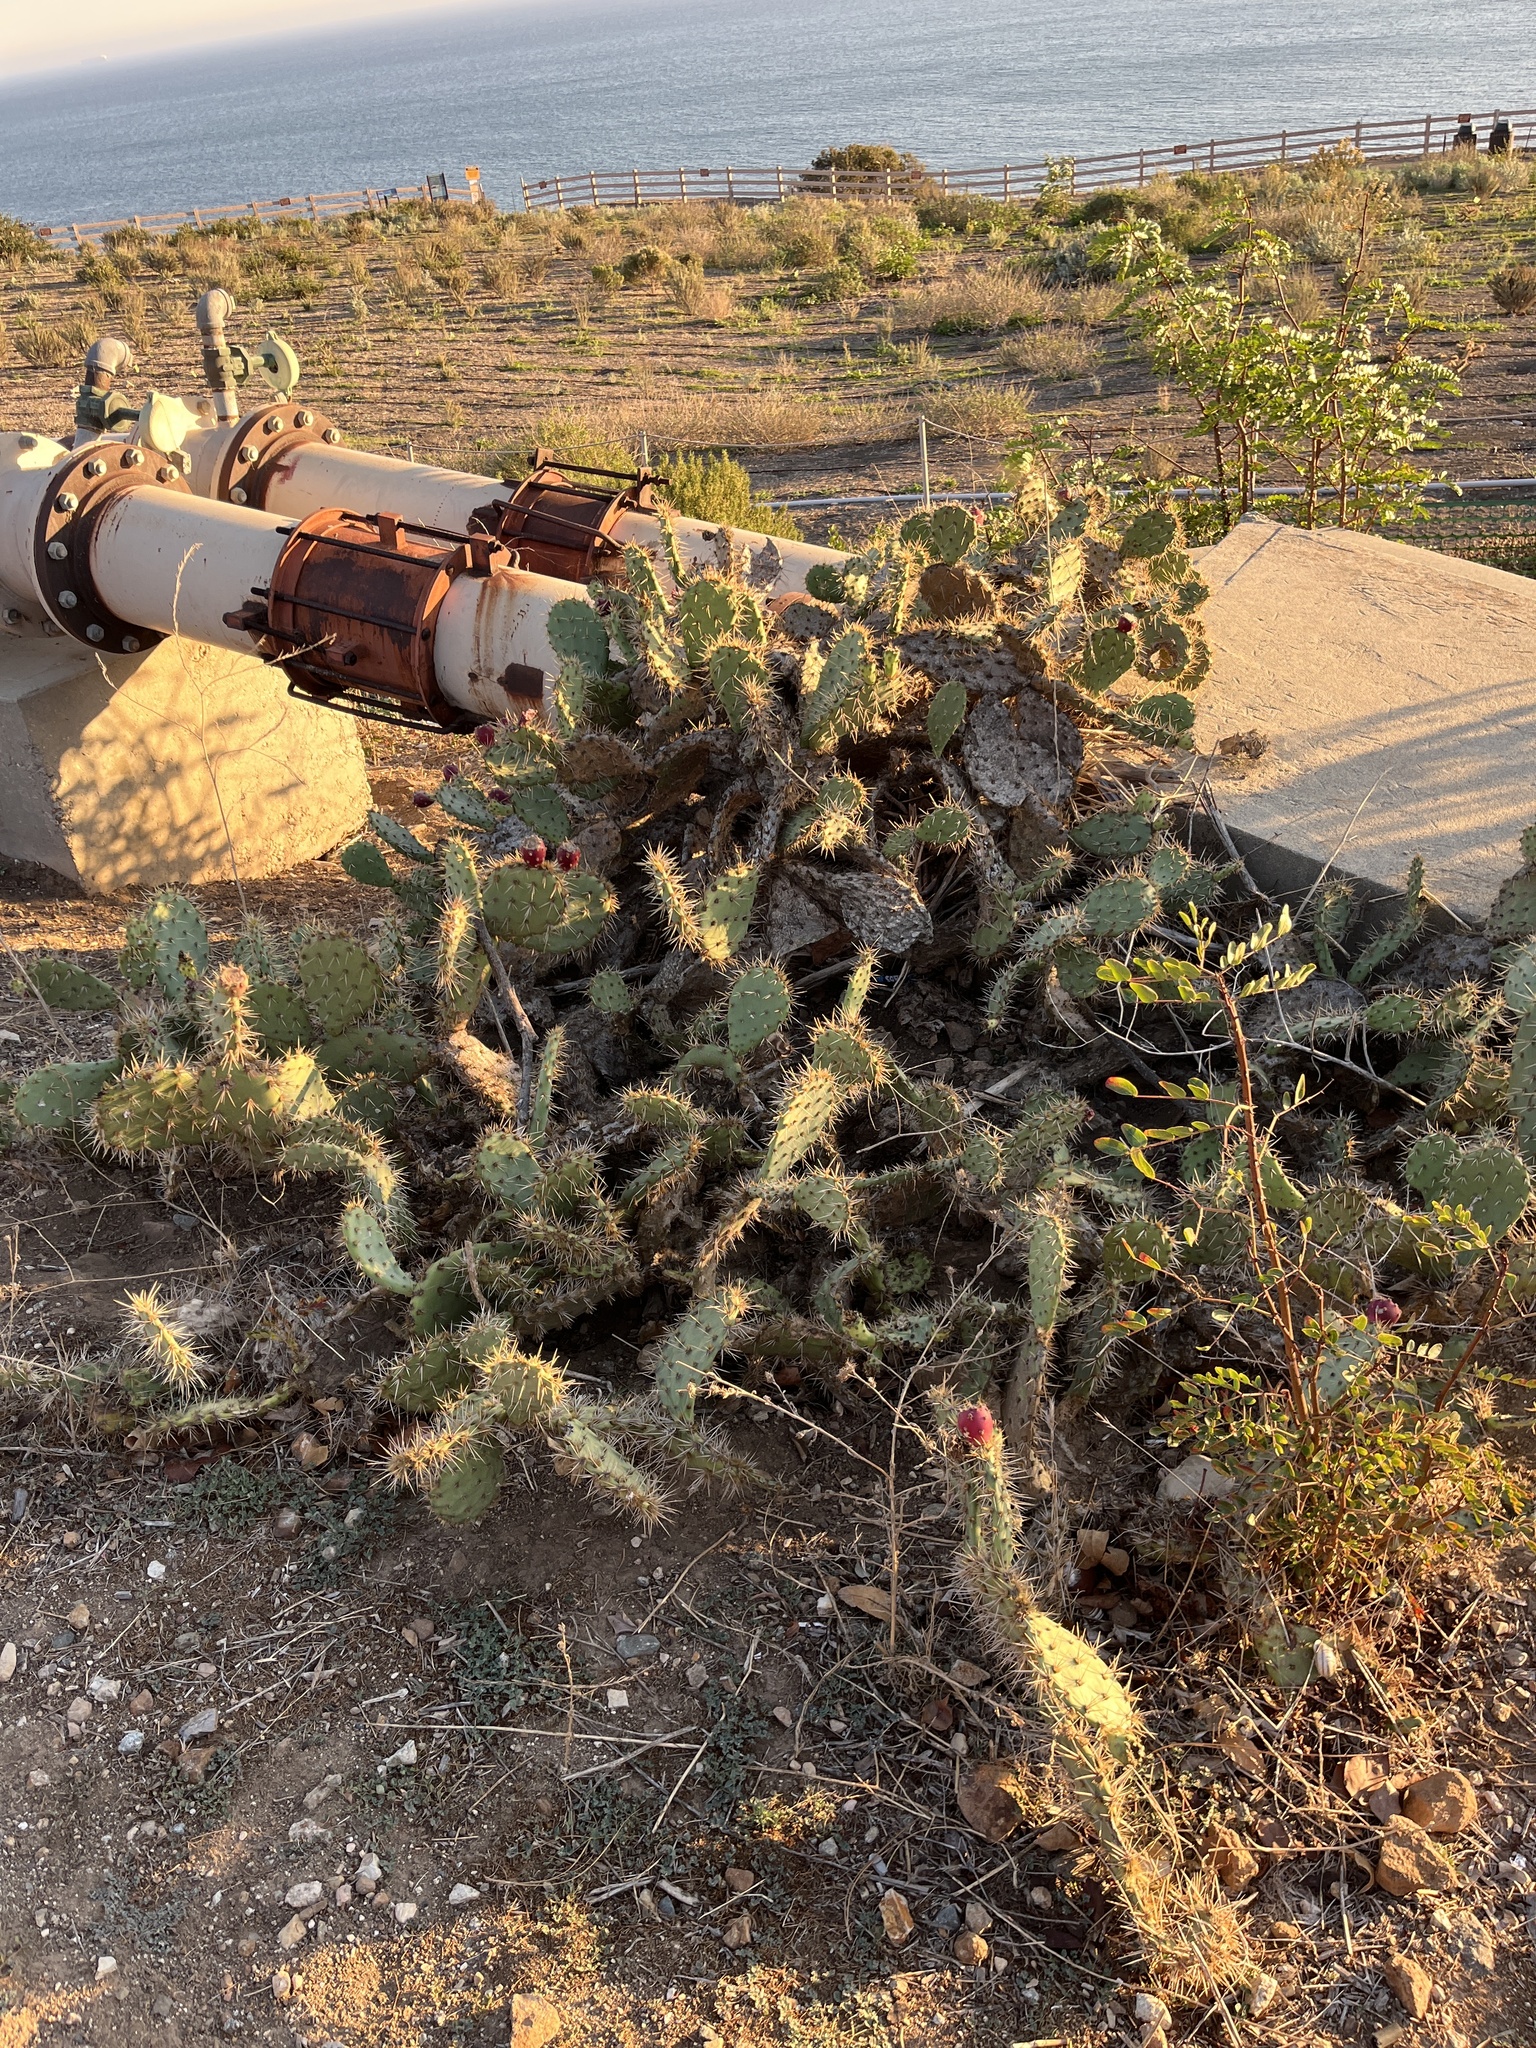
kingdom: Plantae
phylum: Tracheophyta
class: Magnoliopsida
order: Caryophyllales
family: Cactaceae
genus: Opuntia
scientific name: Opuntia littoralis
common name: Coastal prickly-pear
